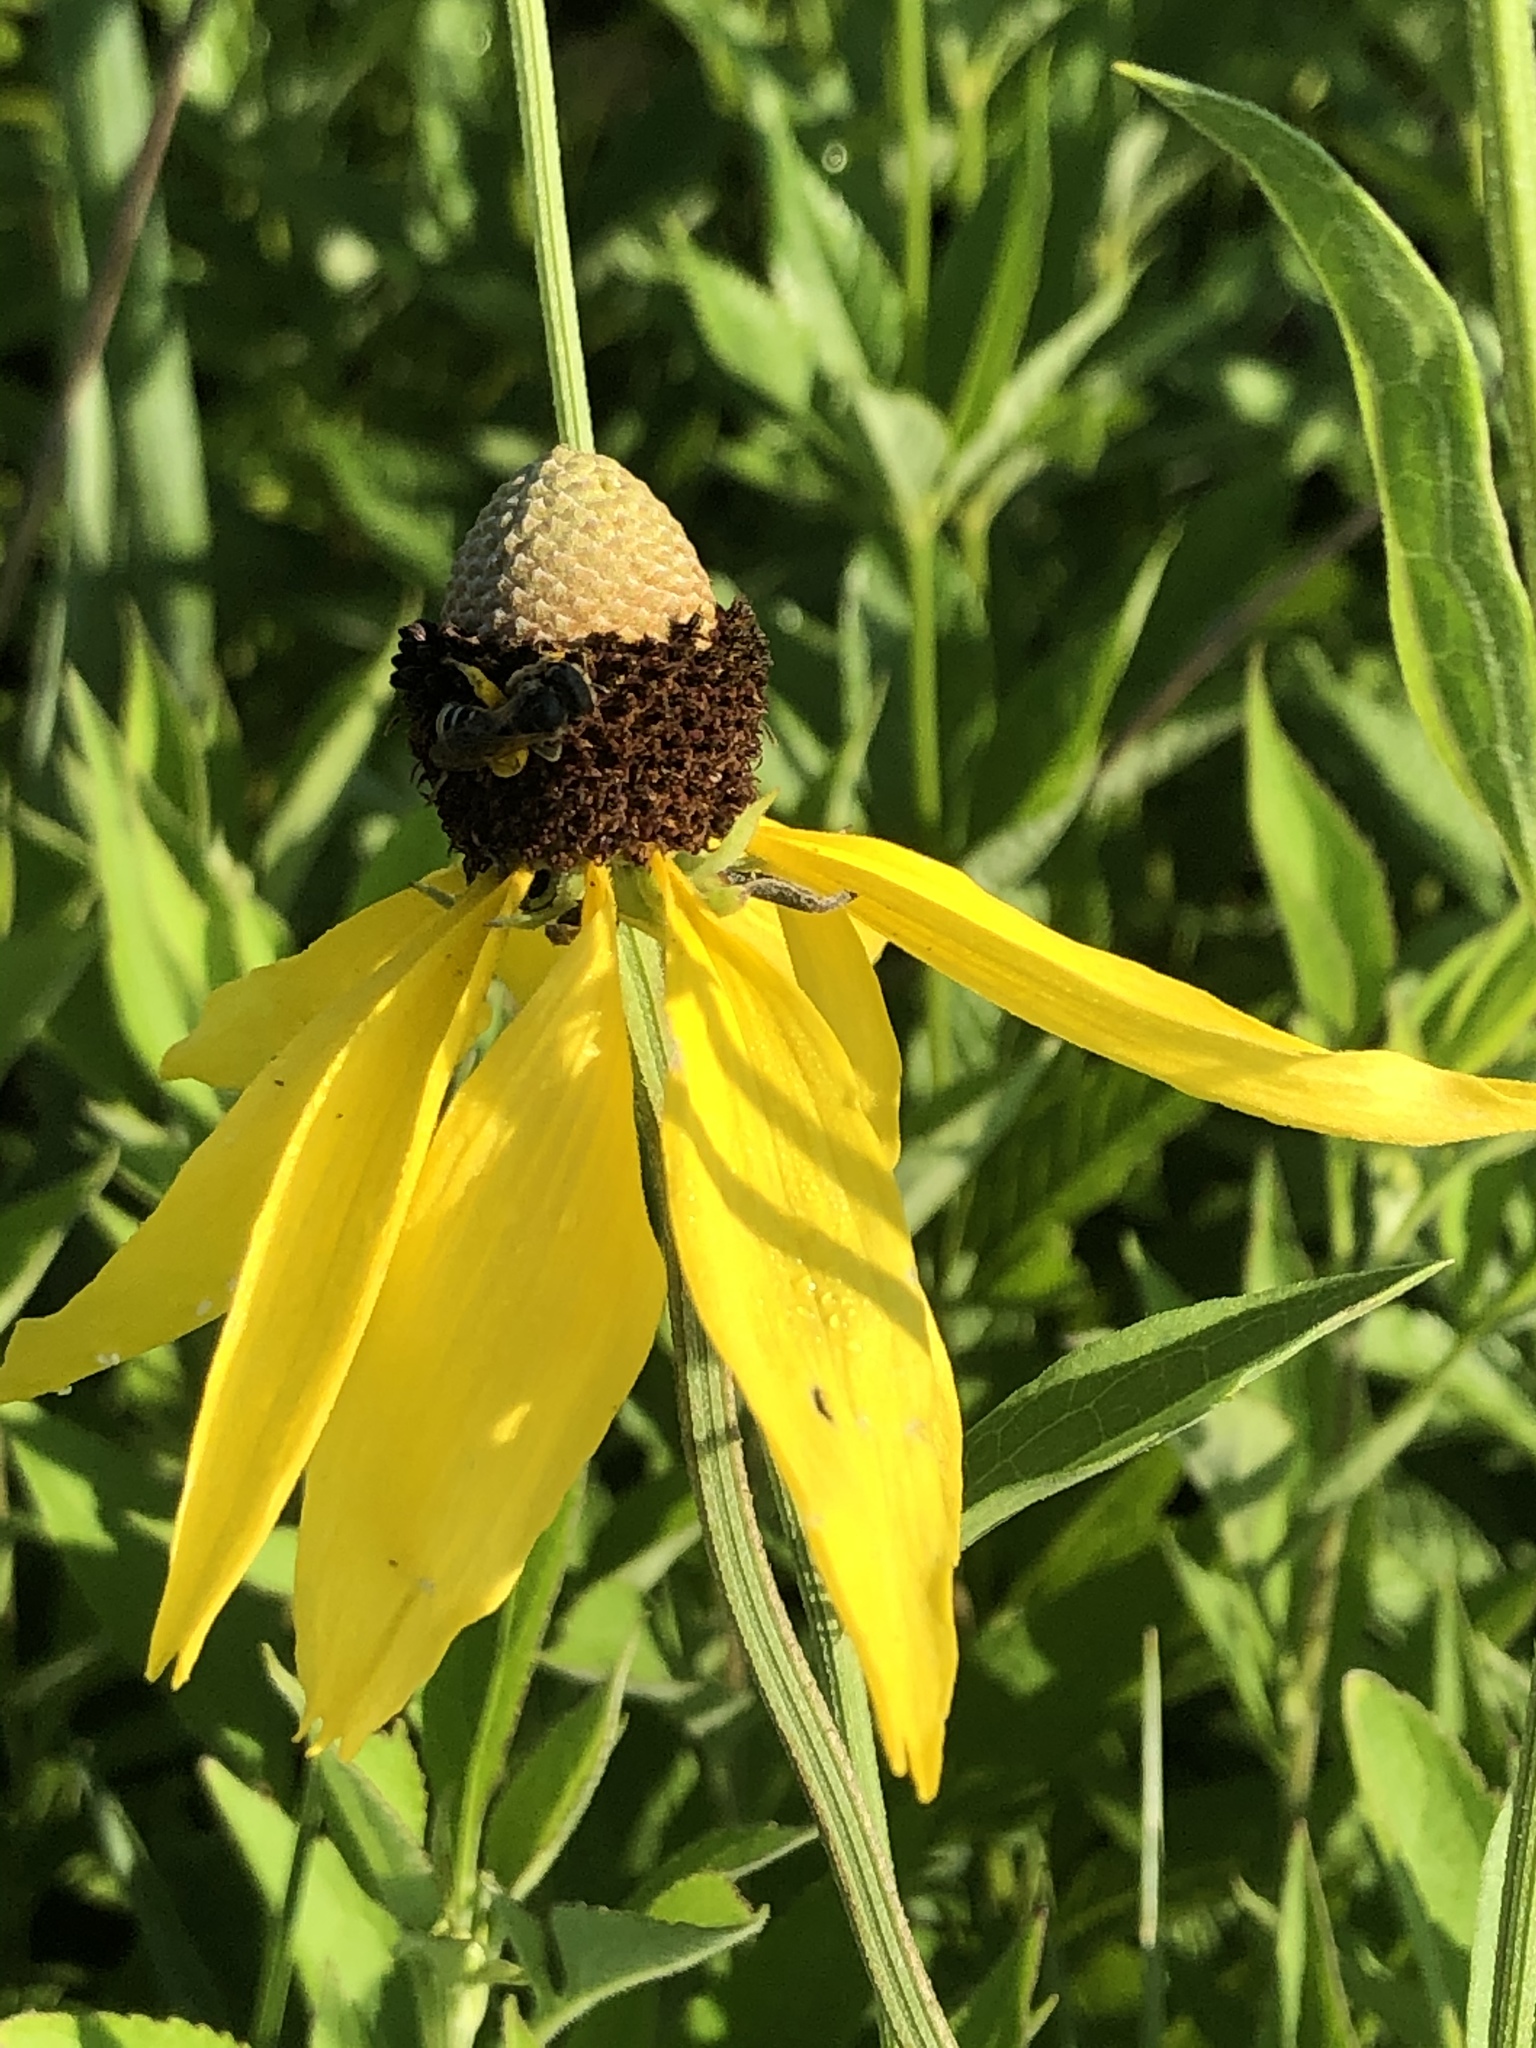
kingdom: Plantae
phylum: Tracheophyta
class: Magnoliopsida
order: Asterales
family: Asteraceae
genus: Ratibida
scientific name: Ratibida pinnata
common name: Drooping prairie-coneflower
